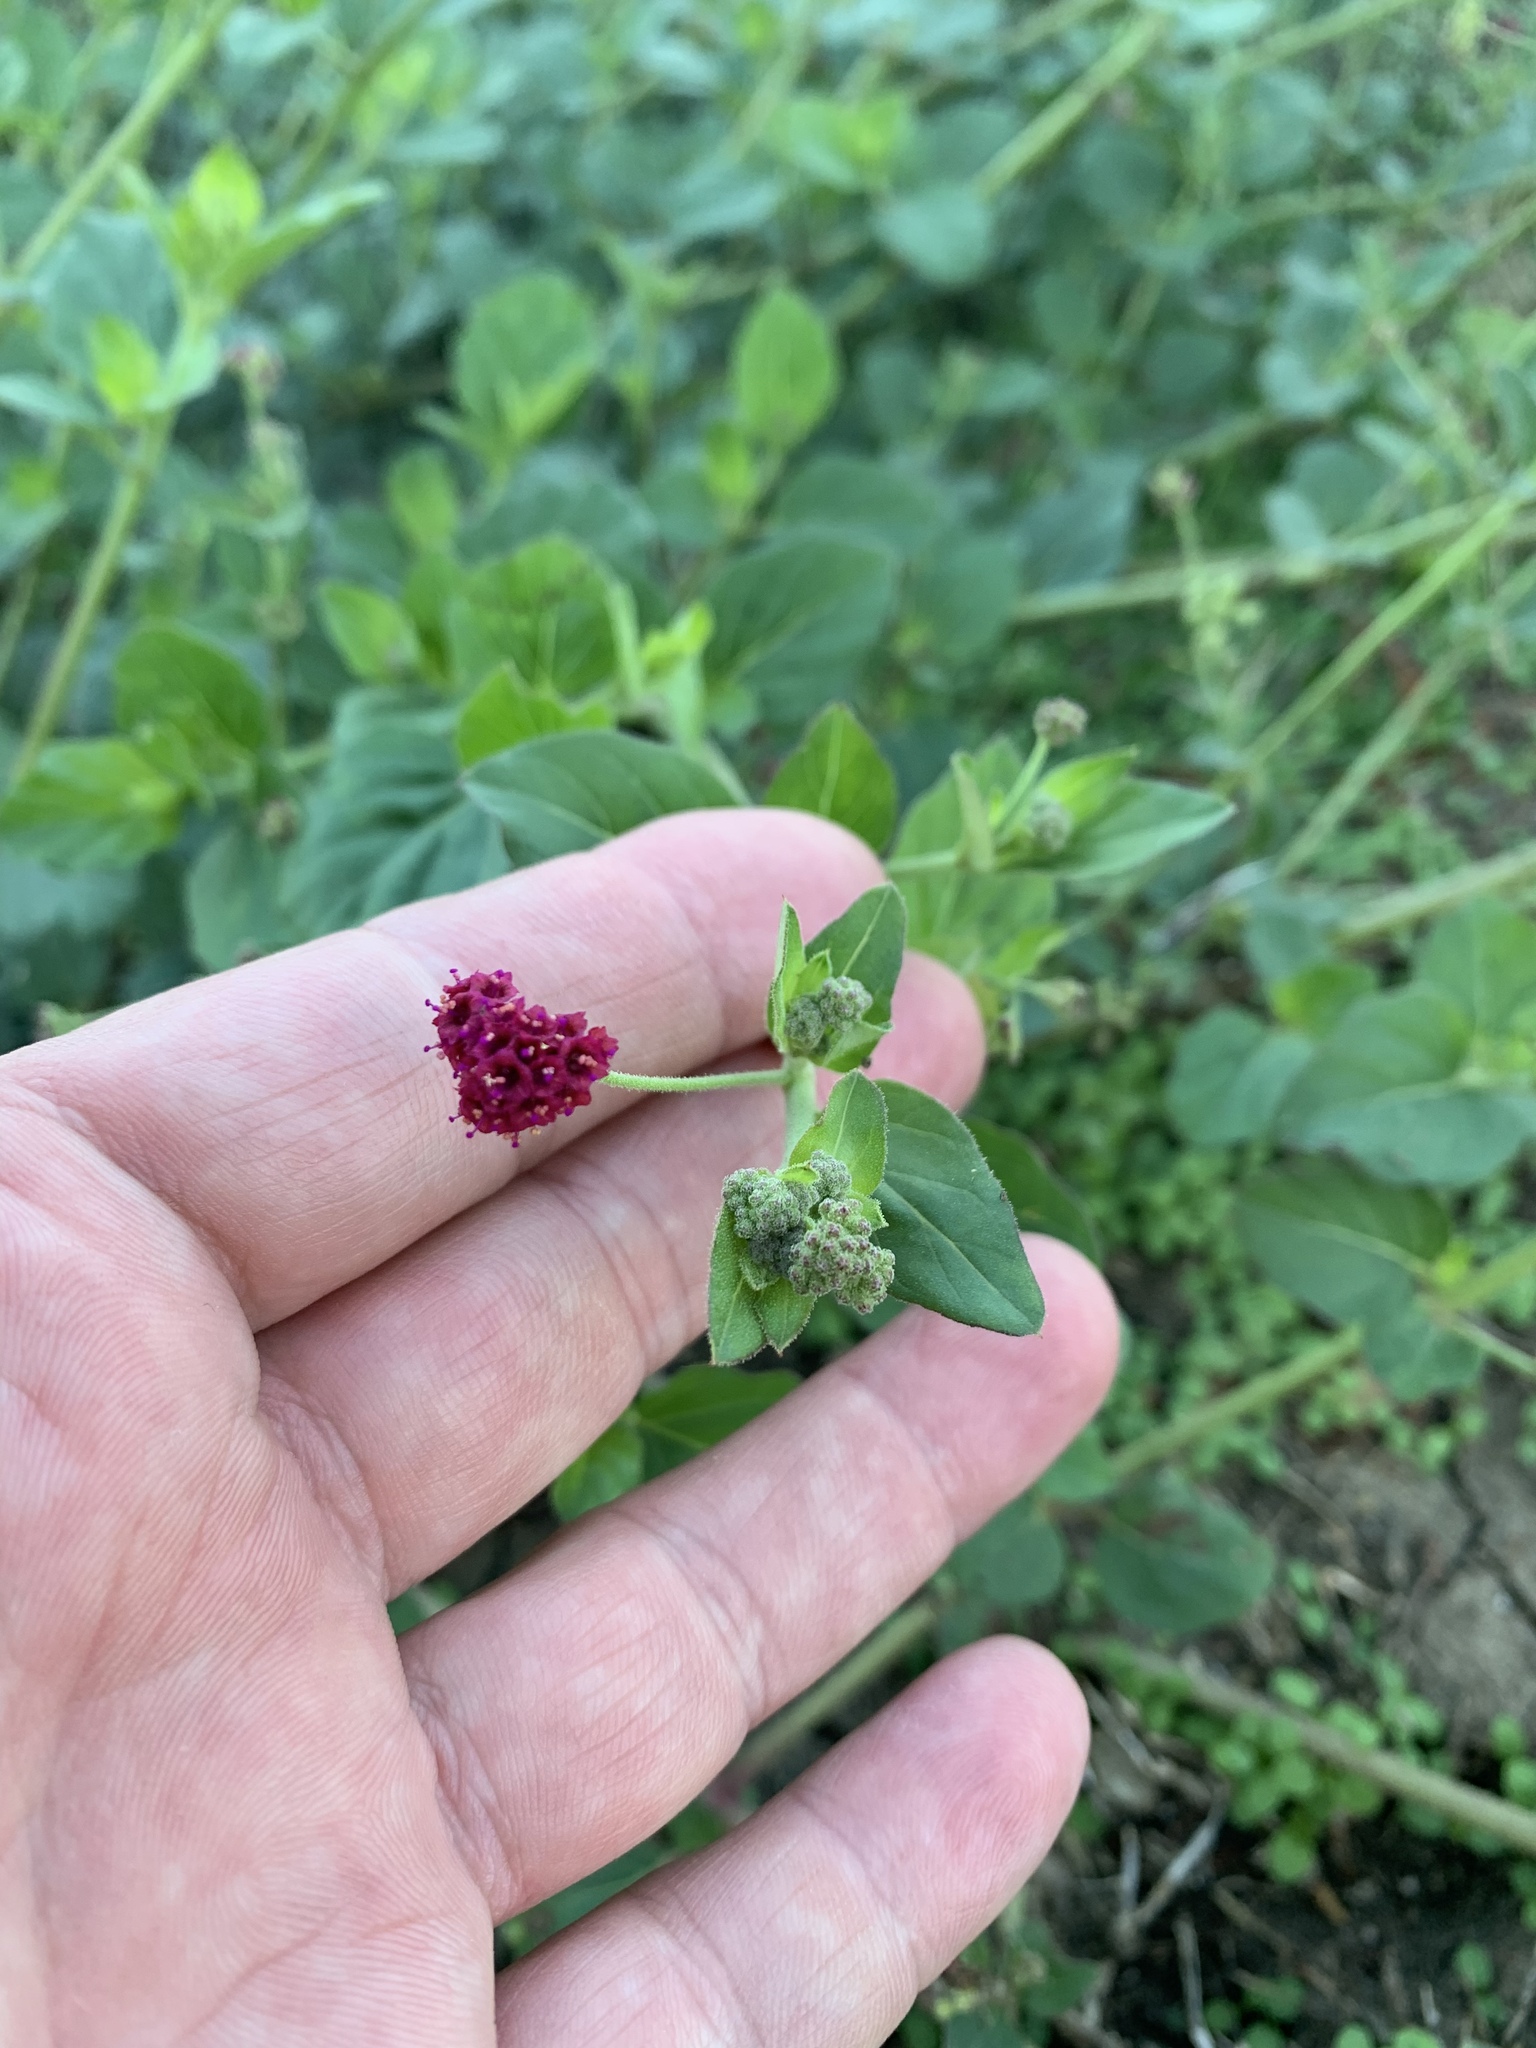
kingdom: Plantae
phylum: Tracheophyta
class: Magnoliopsida
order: Caryophyllales
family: Nyctaginaceae
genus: Boerhavia
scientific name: Boerhavia coccinea
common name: Scarlet spiderling
